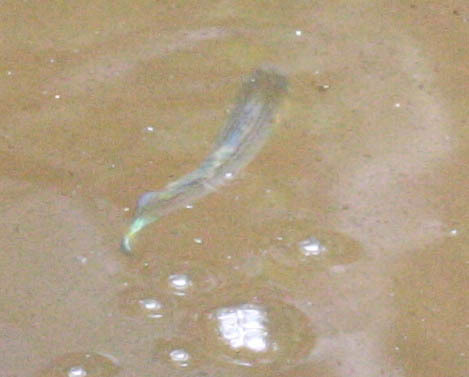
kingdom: Animalia
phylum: Chordata
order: Cyprinodontiformes
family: Poeciliidae
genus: Poecilia
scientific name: Poecilia latipinna
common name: Sailfin molly
